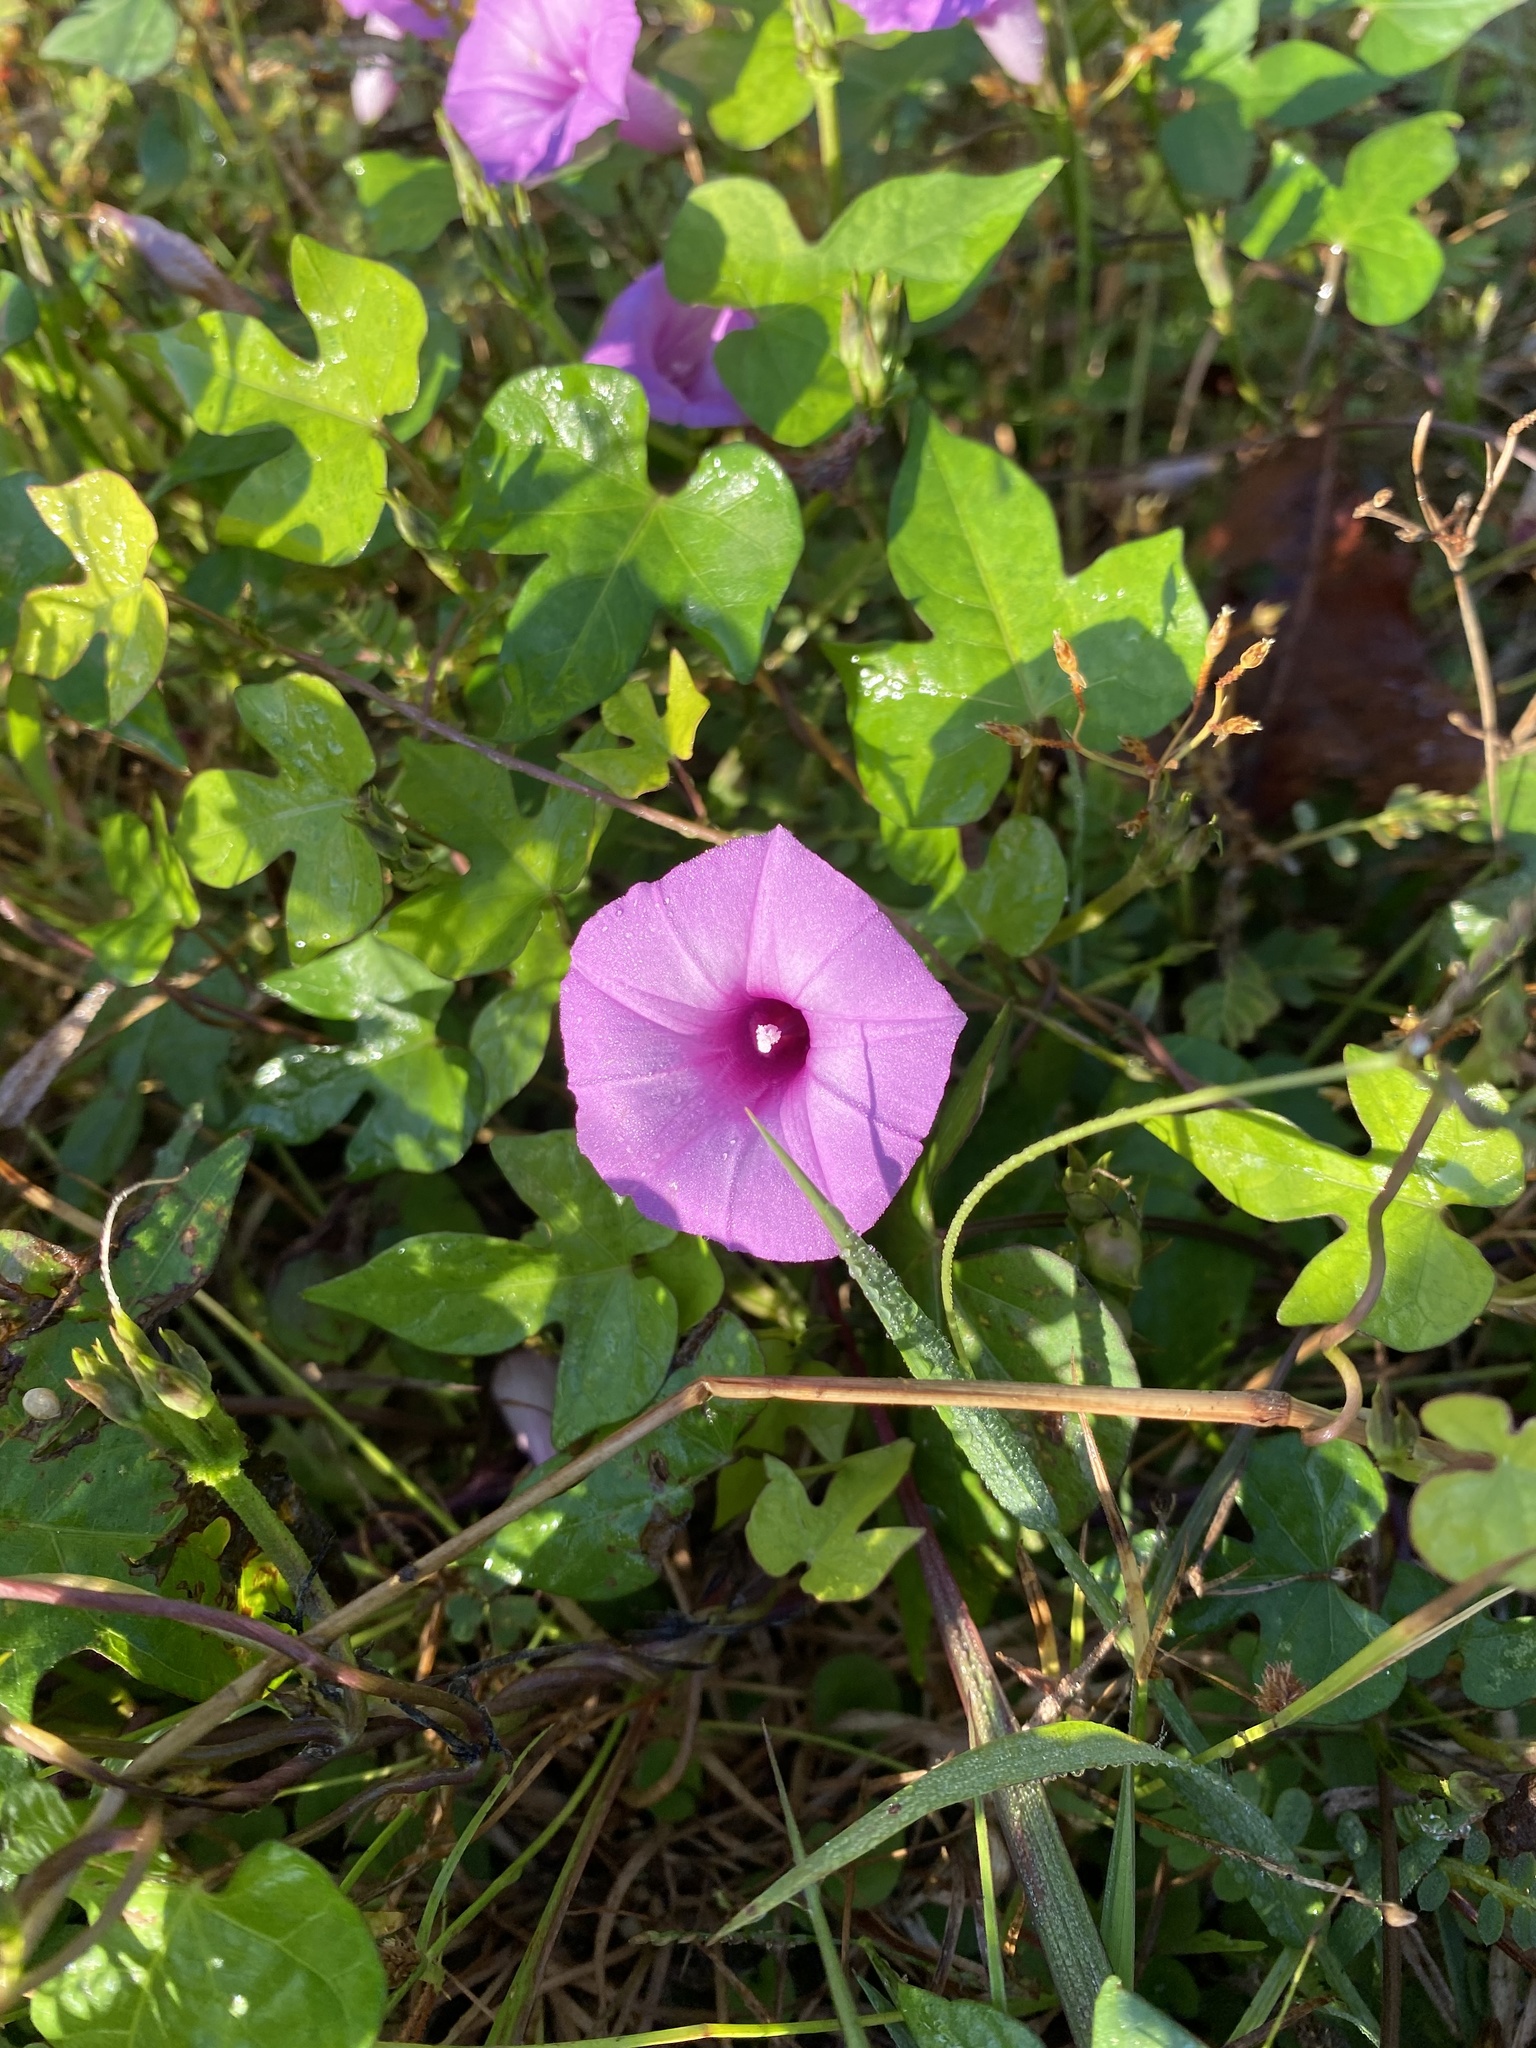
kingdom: Plantae
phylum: Tracheophyta
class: Magnoliopsida
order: Solanales
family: Convolvulaceae
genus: Ipomoea
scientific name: Ipomoea cordatotriloba
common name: Cotton morning glory
